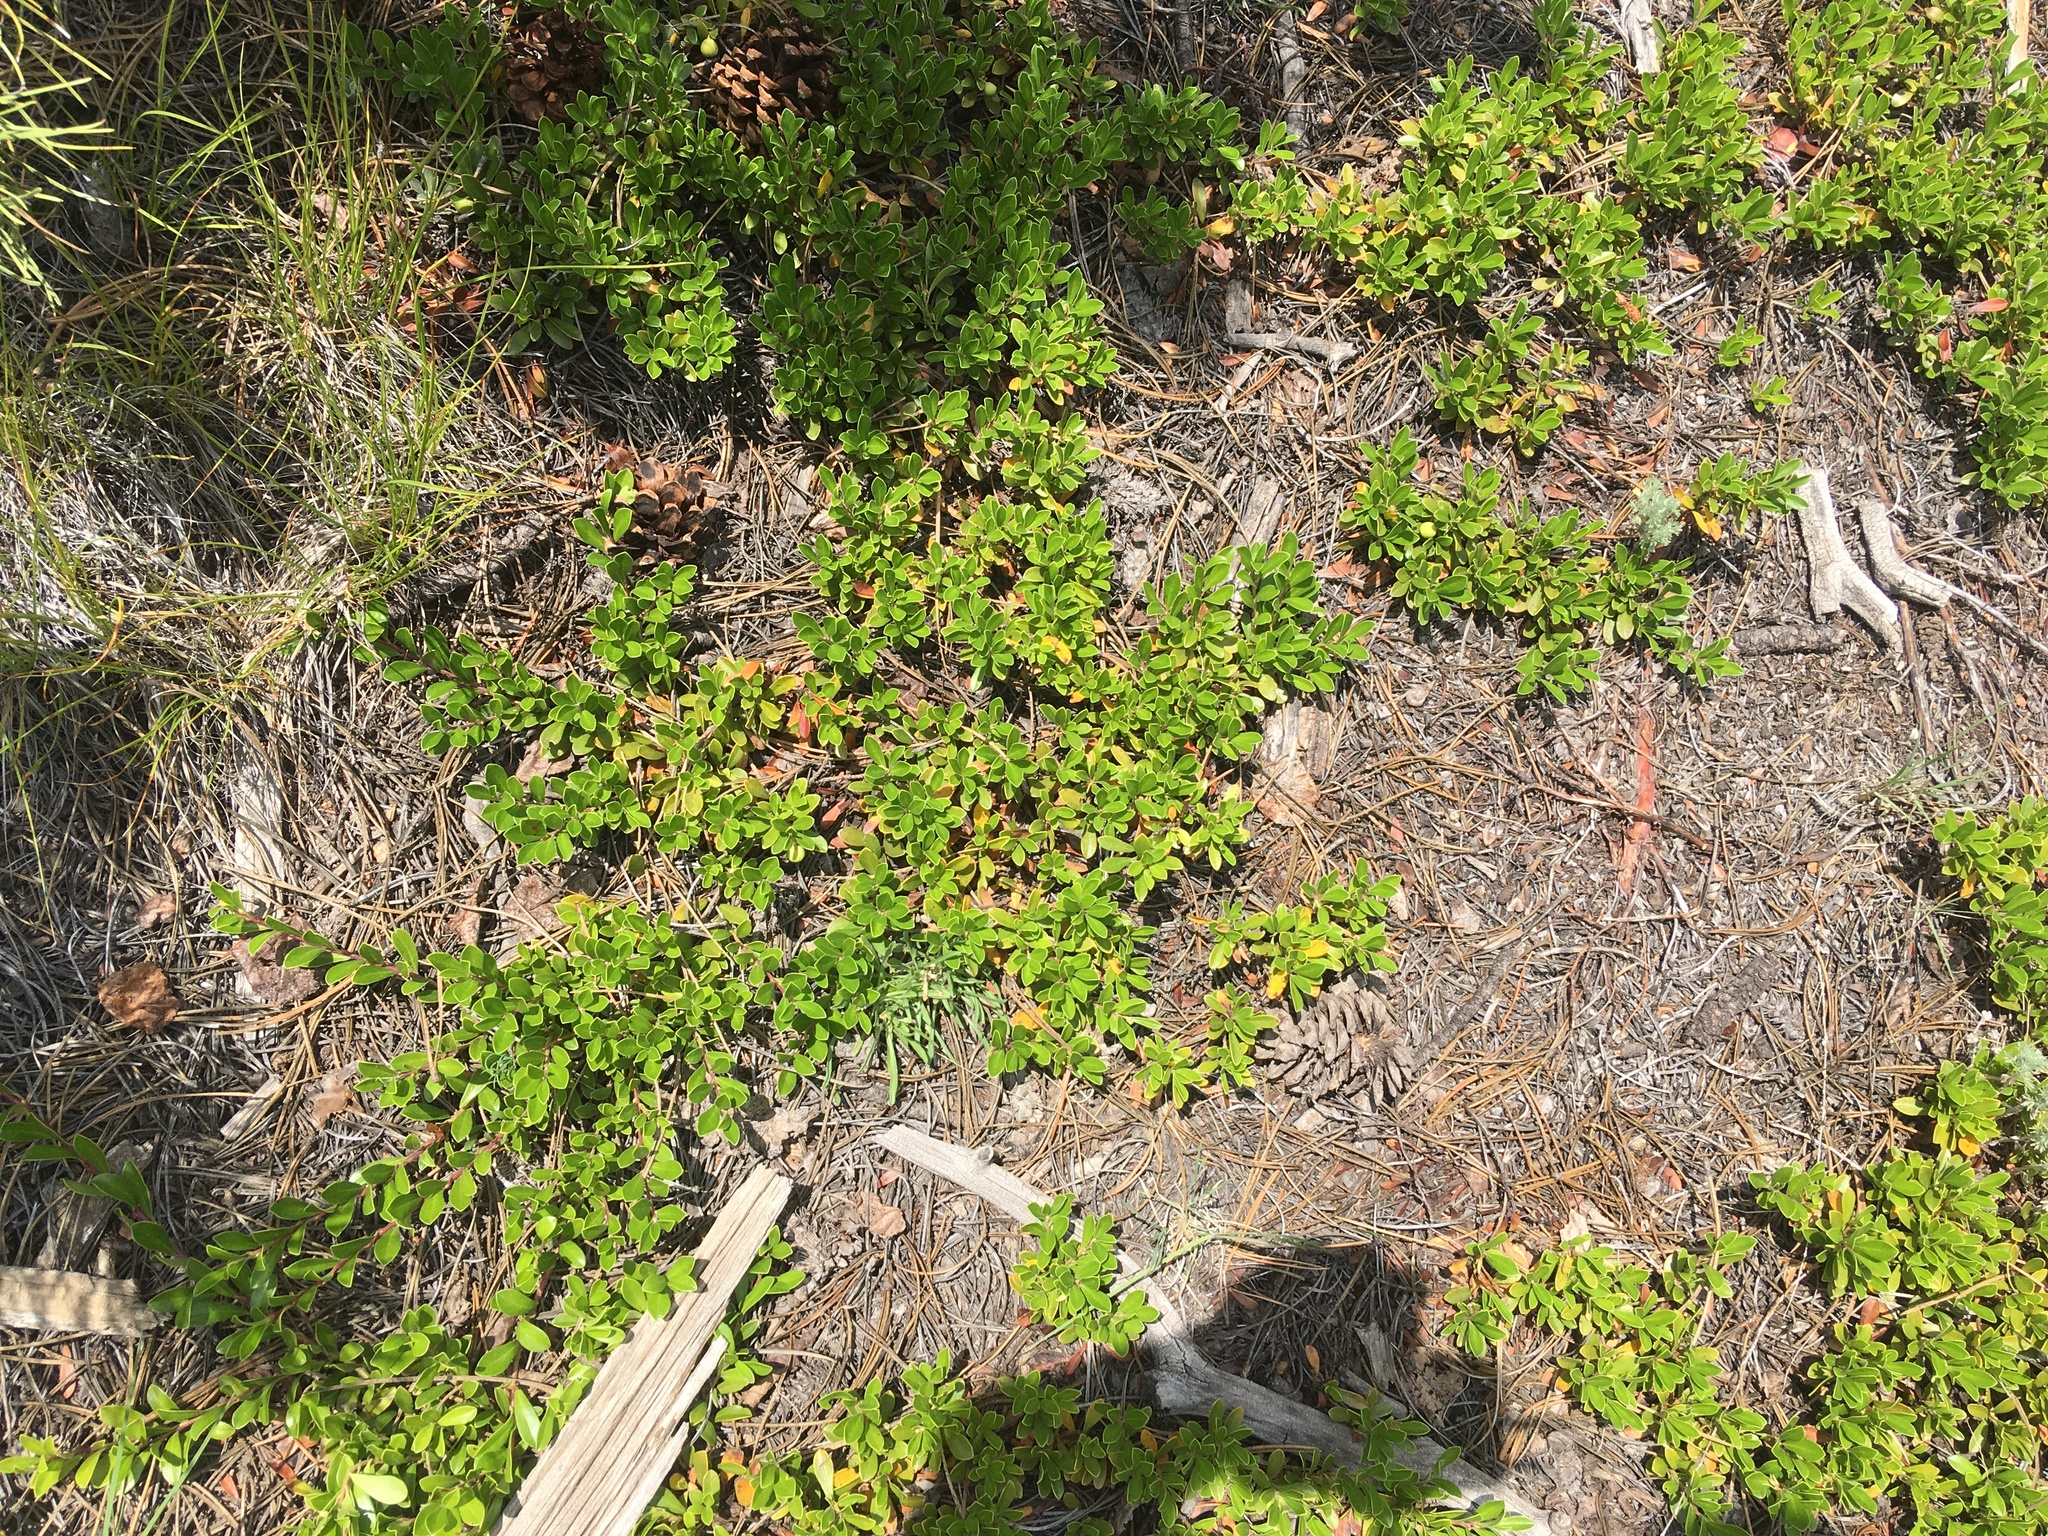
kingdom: Plantae
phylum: Tracheophyta
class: Magnoliopsida
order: Ericales
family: Ericaceae
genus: Arctostaphylos
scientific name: Arctostaphylos uva-ursi
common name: Bearberry
